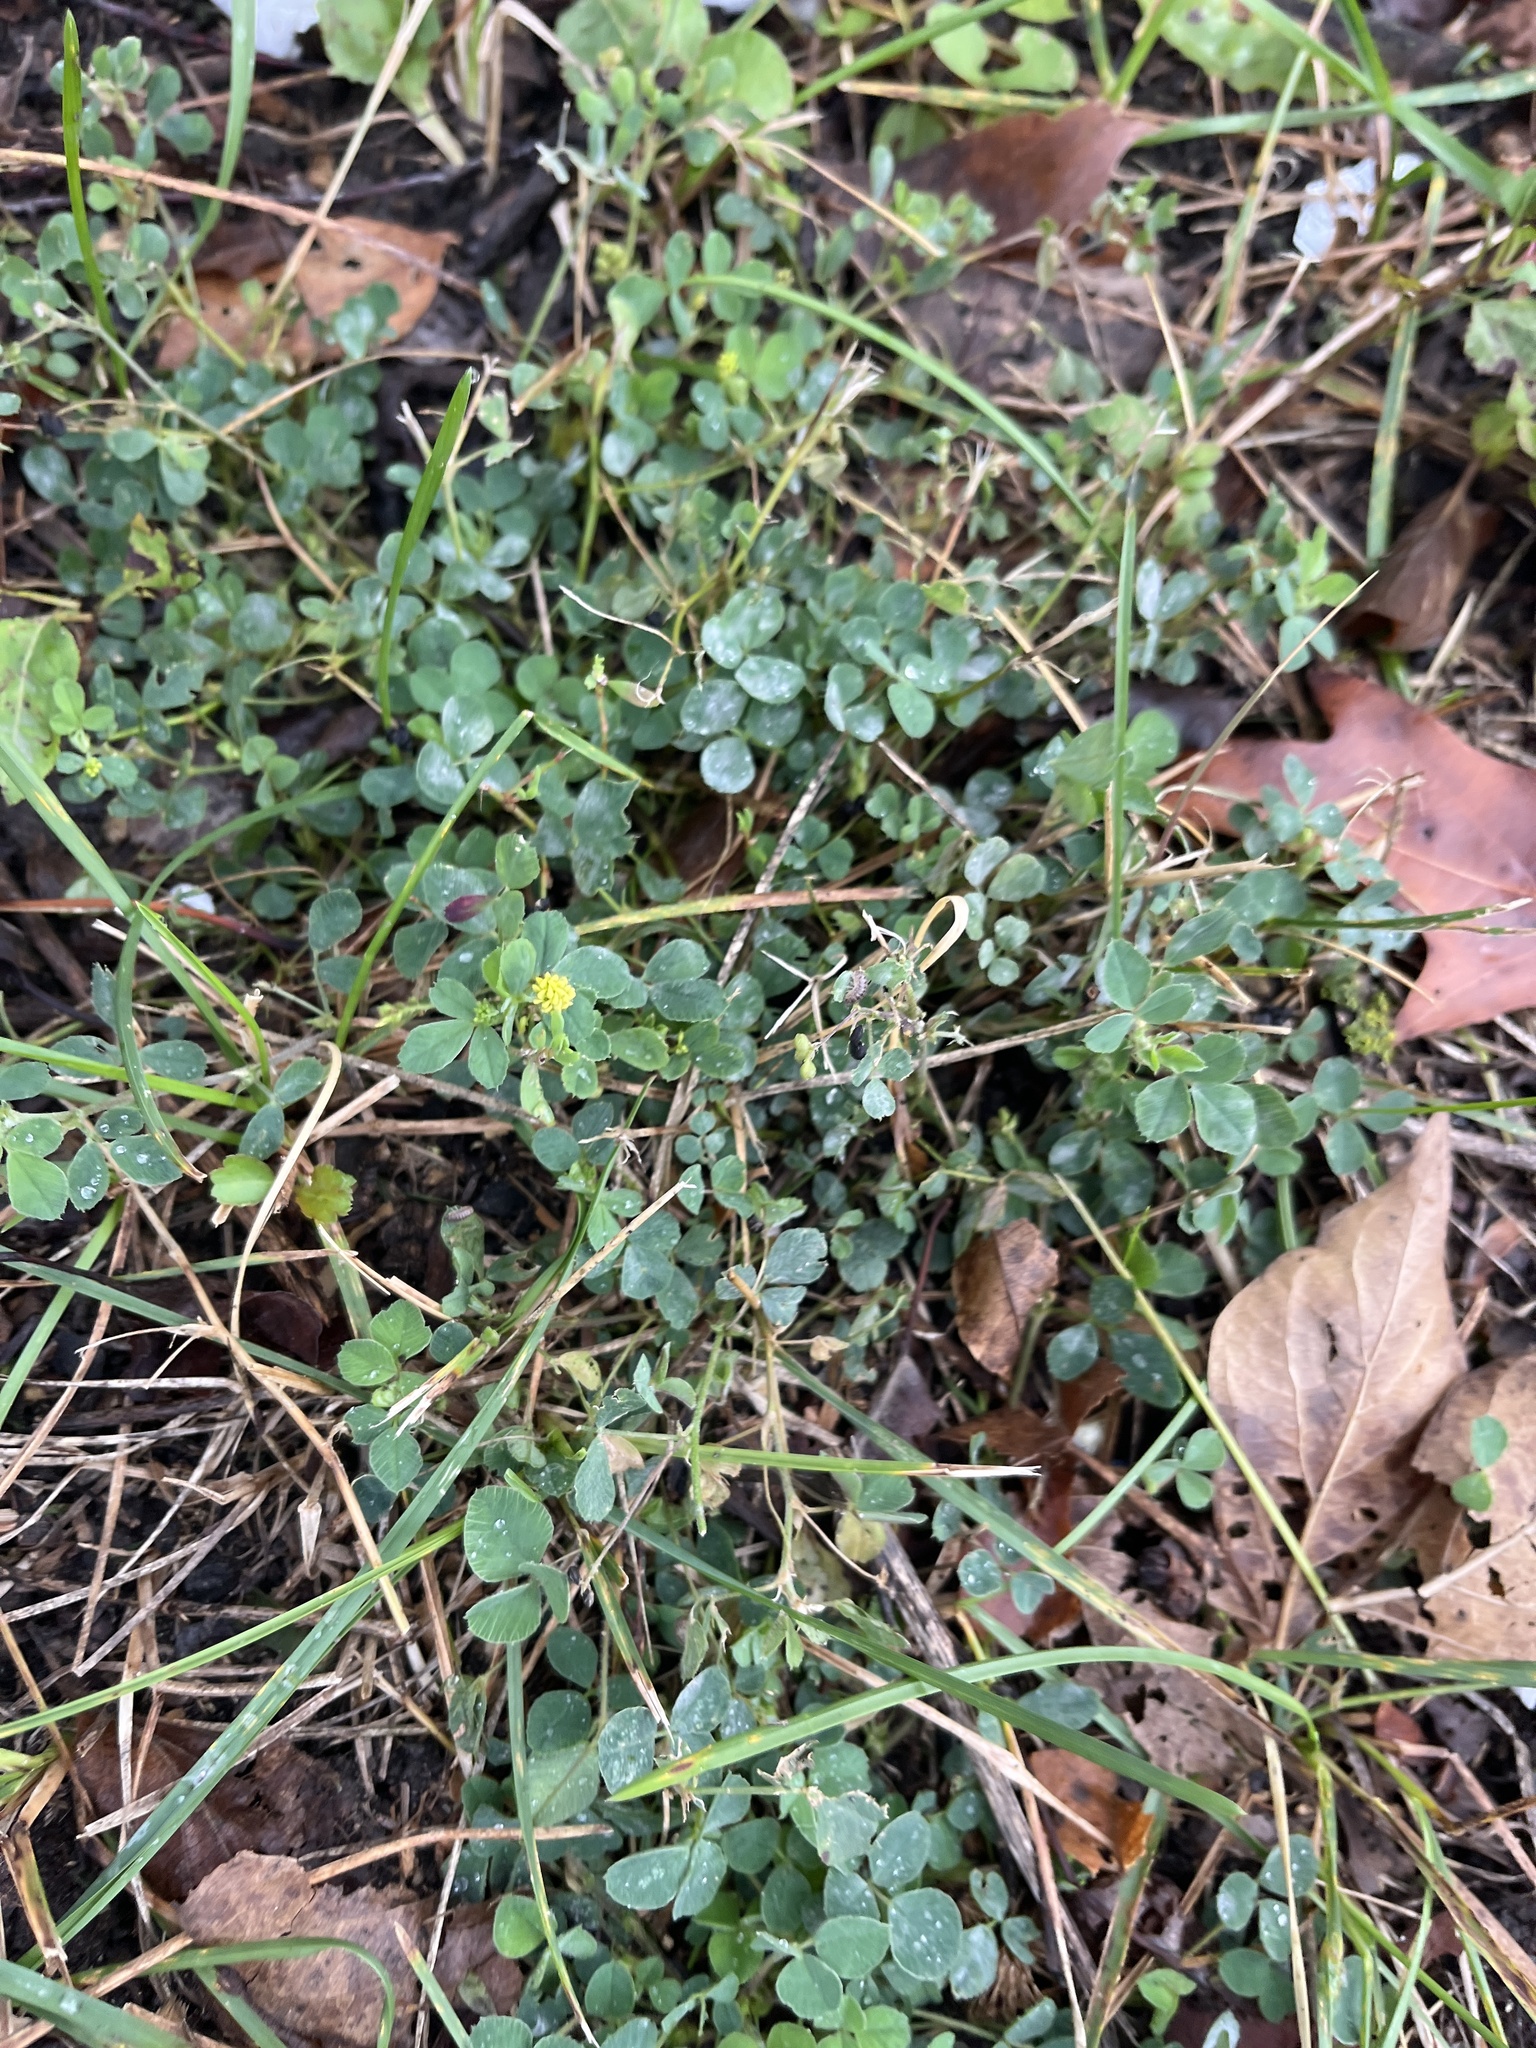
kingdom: Plantae
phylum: Tracheophyta
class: Magnoliopsida
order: Fabales
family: Fabaceae
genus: Medicago
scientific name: Medicago lupulina
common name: Black medick
